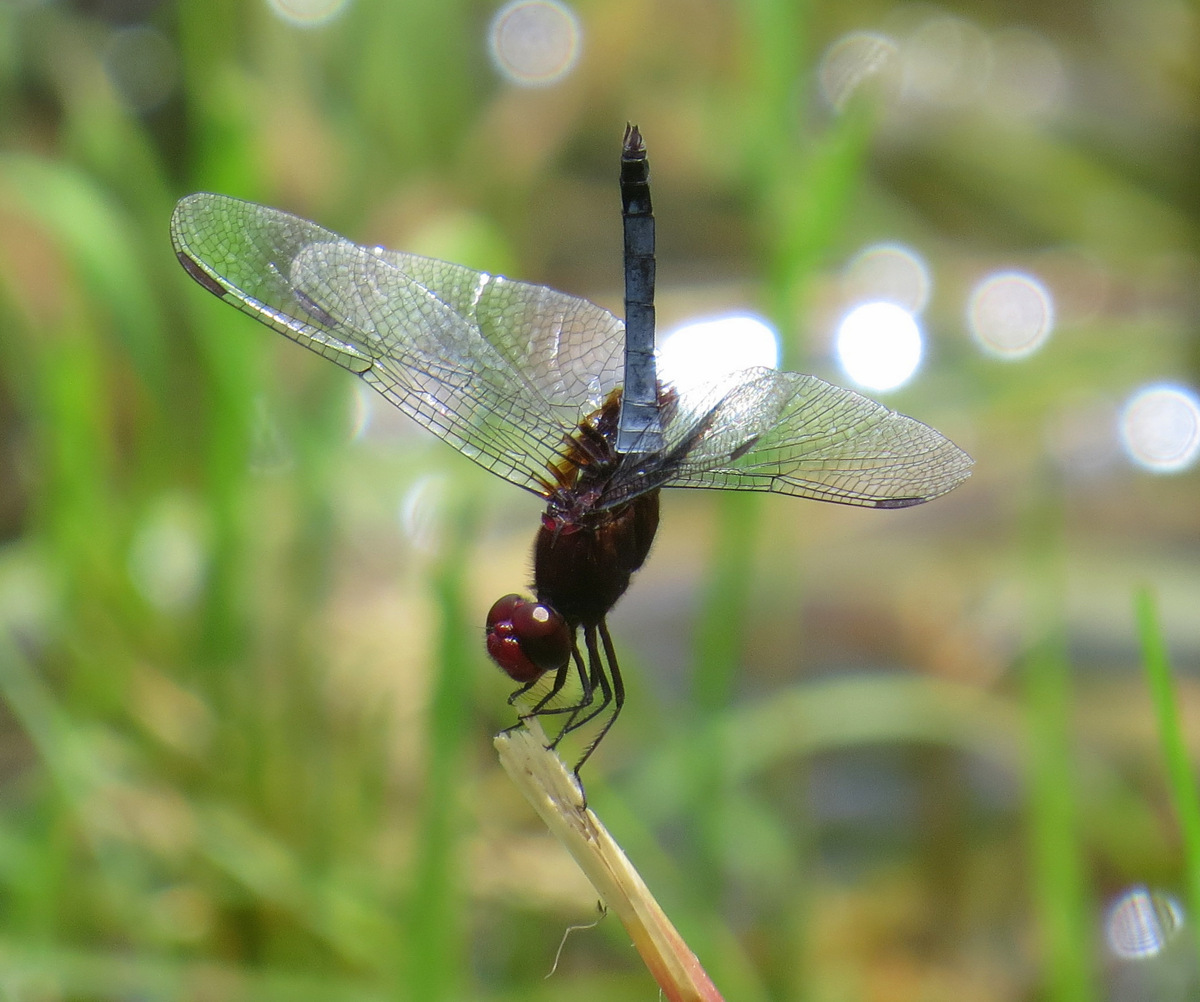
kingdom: Animalia
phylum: Arthropoda
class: Insecta
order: Odonata
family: Libellulidae
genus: Erythrodiplax
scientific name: Erythrodiplax fusca
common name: Red-faced dragonlet
